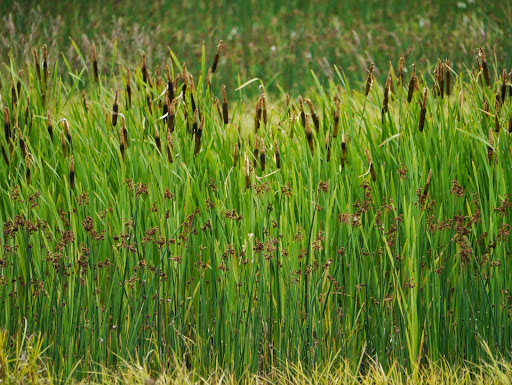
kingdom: Plantae
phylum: Tracheophyta
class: Liliopsida
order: Poales
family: Typhaceae
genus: Typha
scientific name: Typha latifolia
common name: Broadleaf cattail
